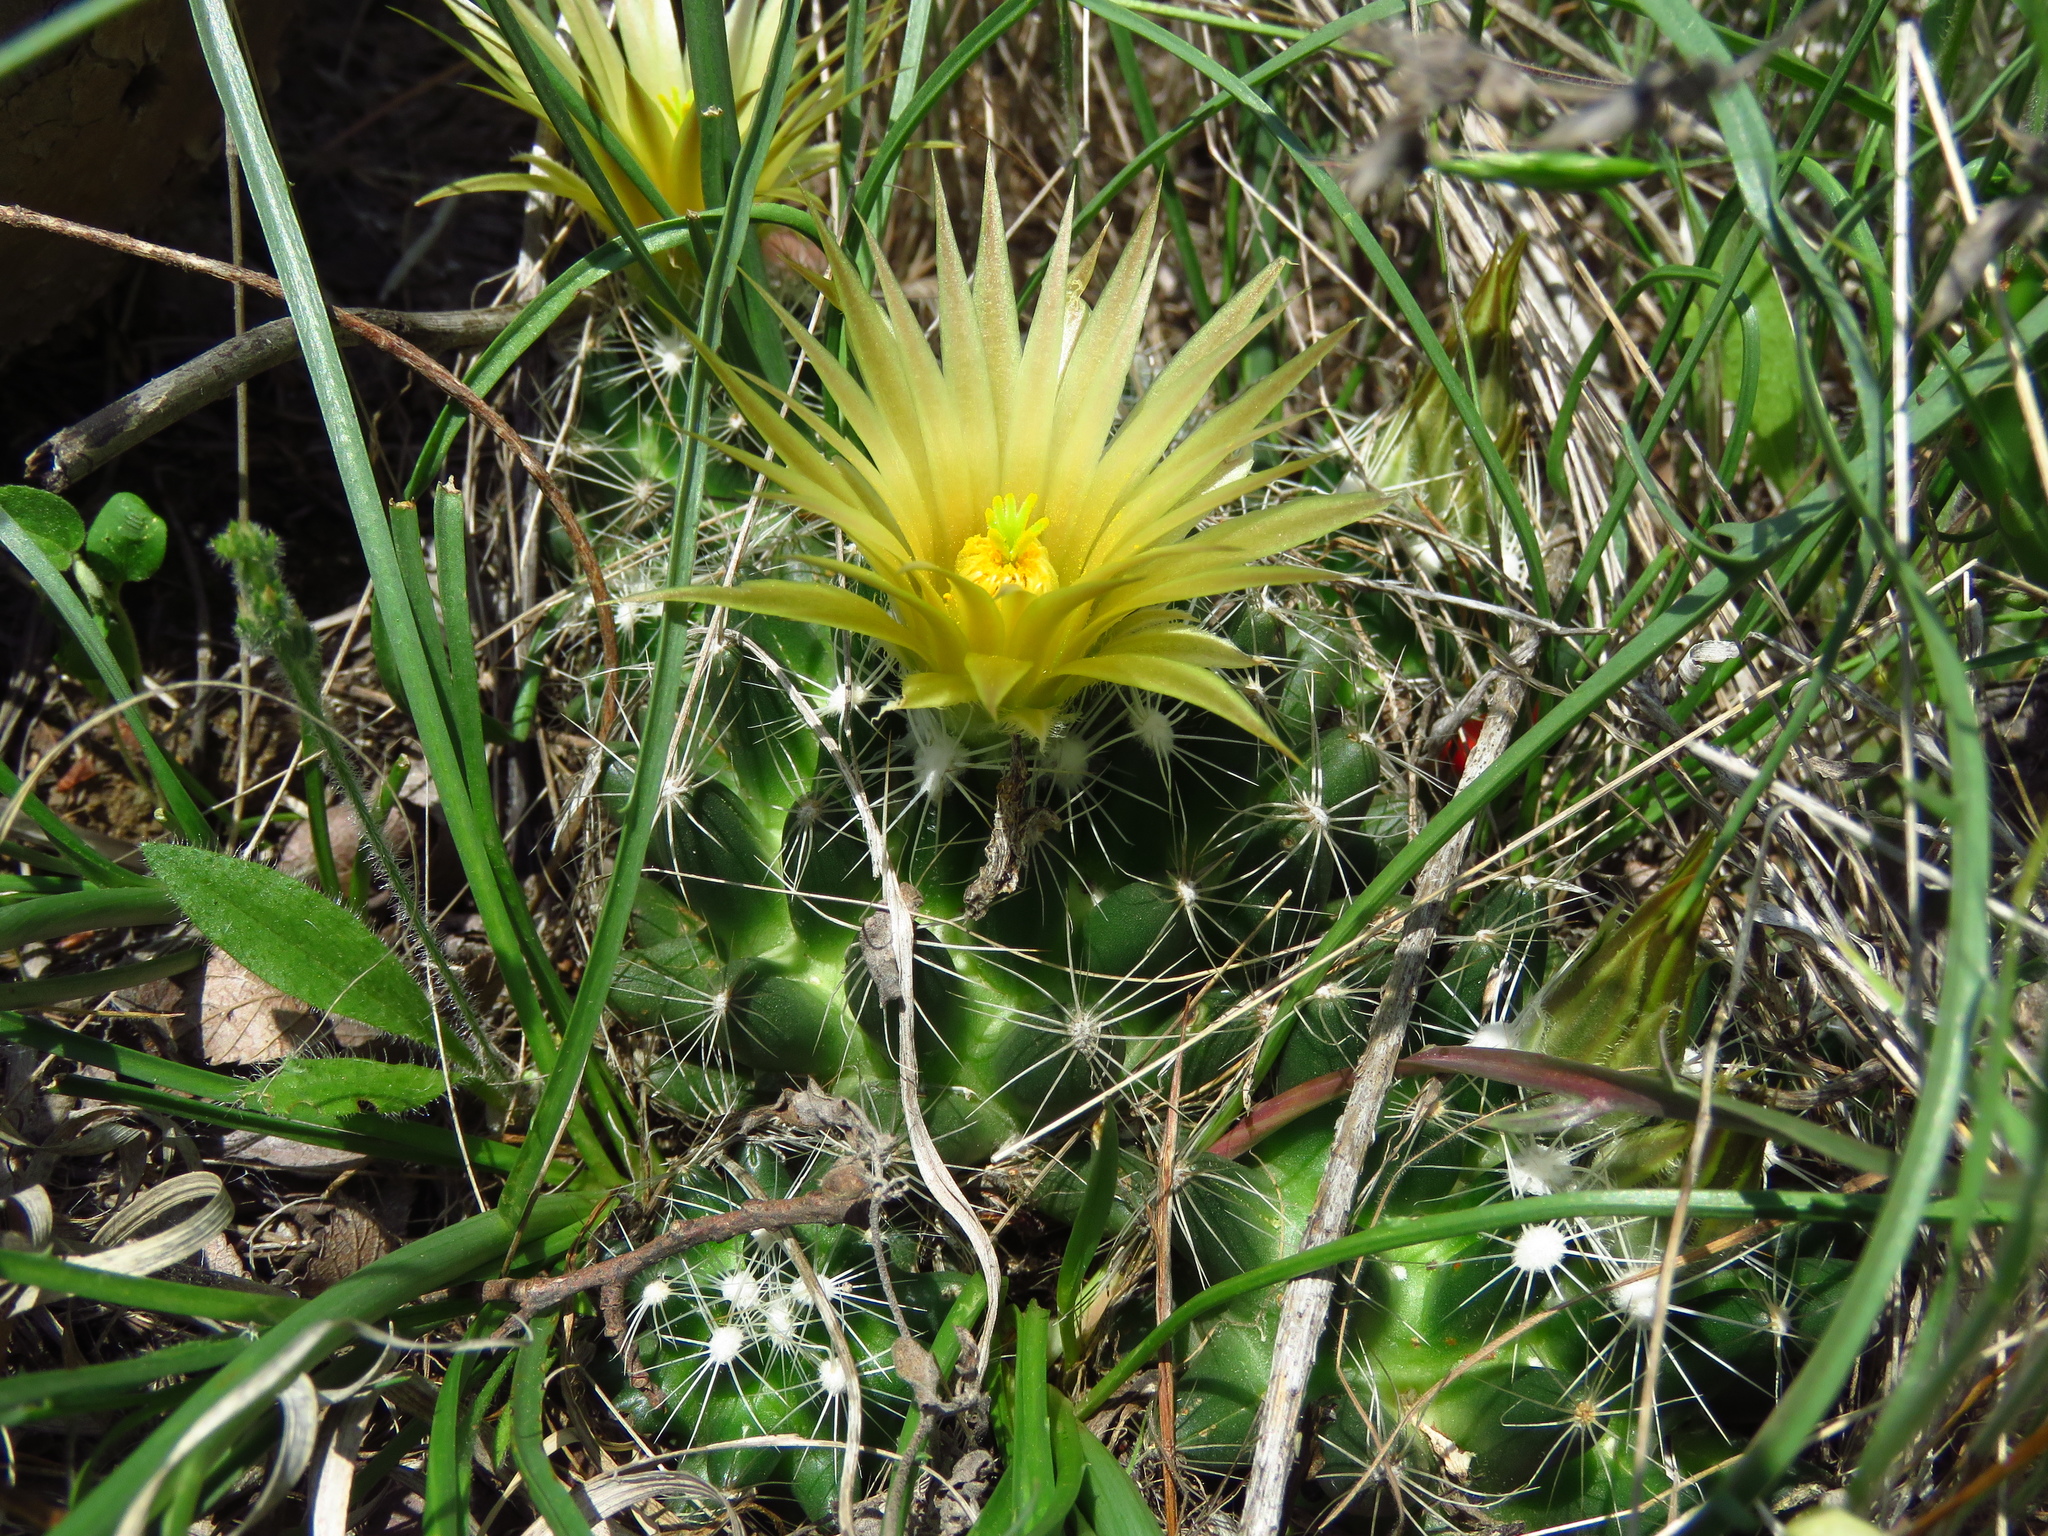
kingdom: Plantae
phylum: Tracheophyta
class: Magnoliopsida
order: Caryophyllales
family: Cactaceae
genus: Pelecyphora
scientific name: Pelecyphora missouriensis
